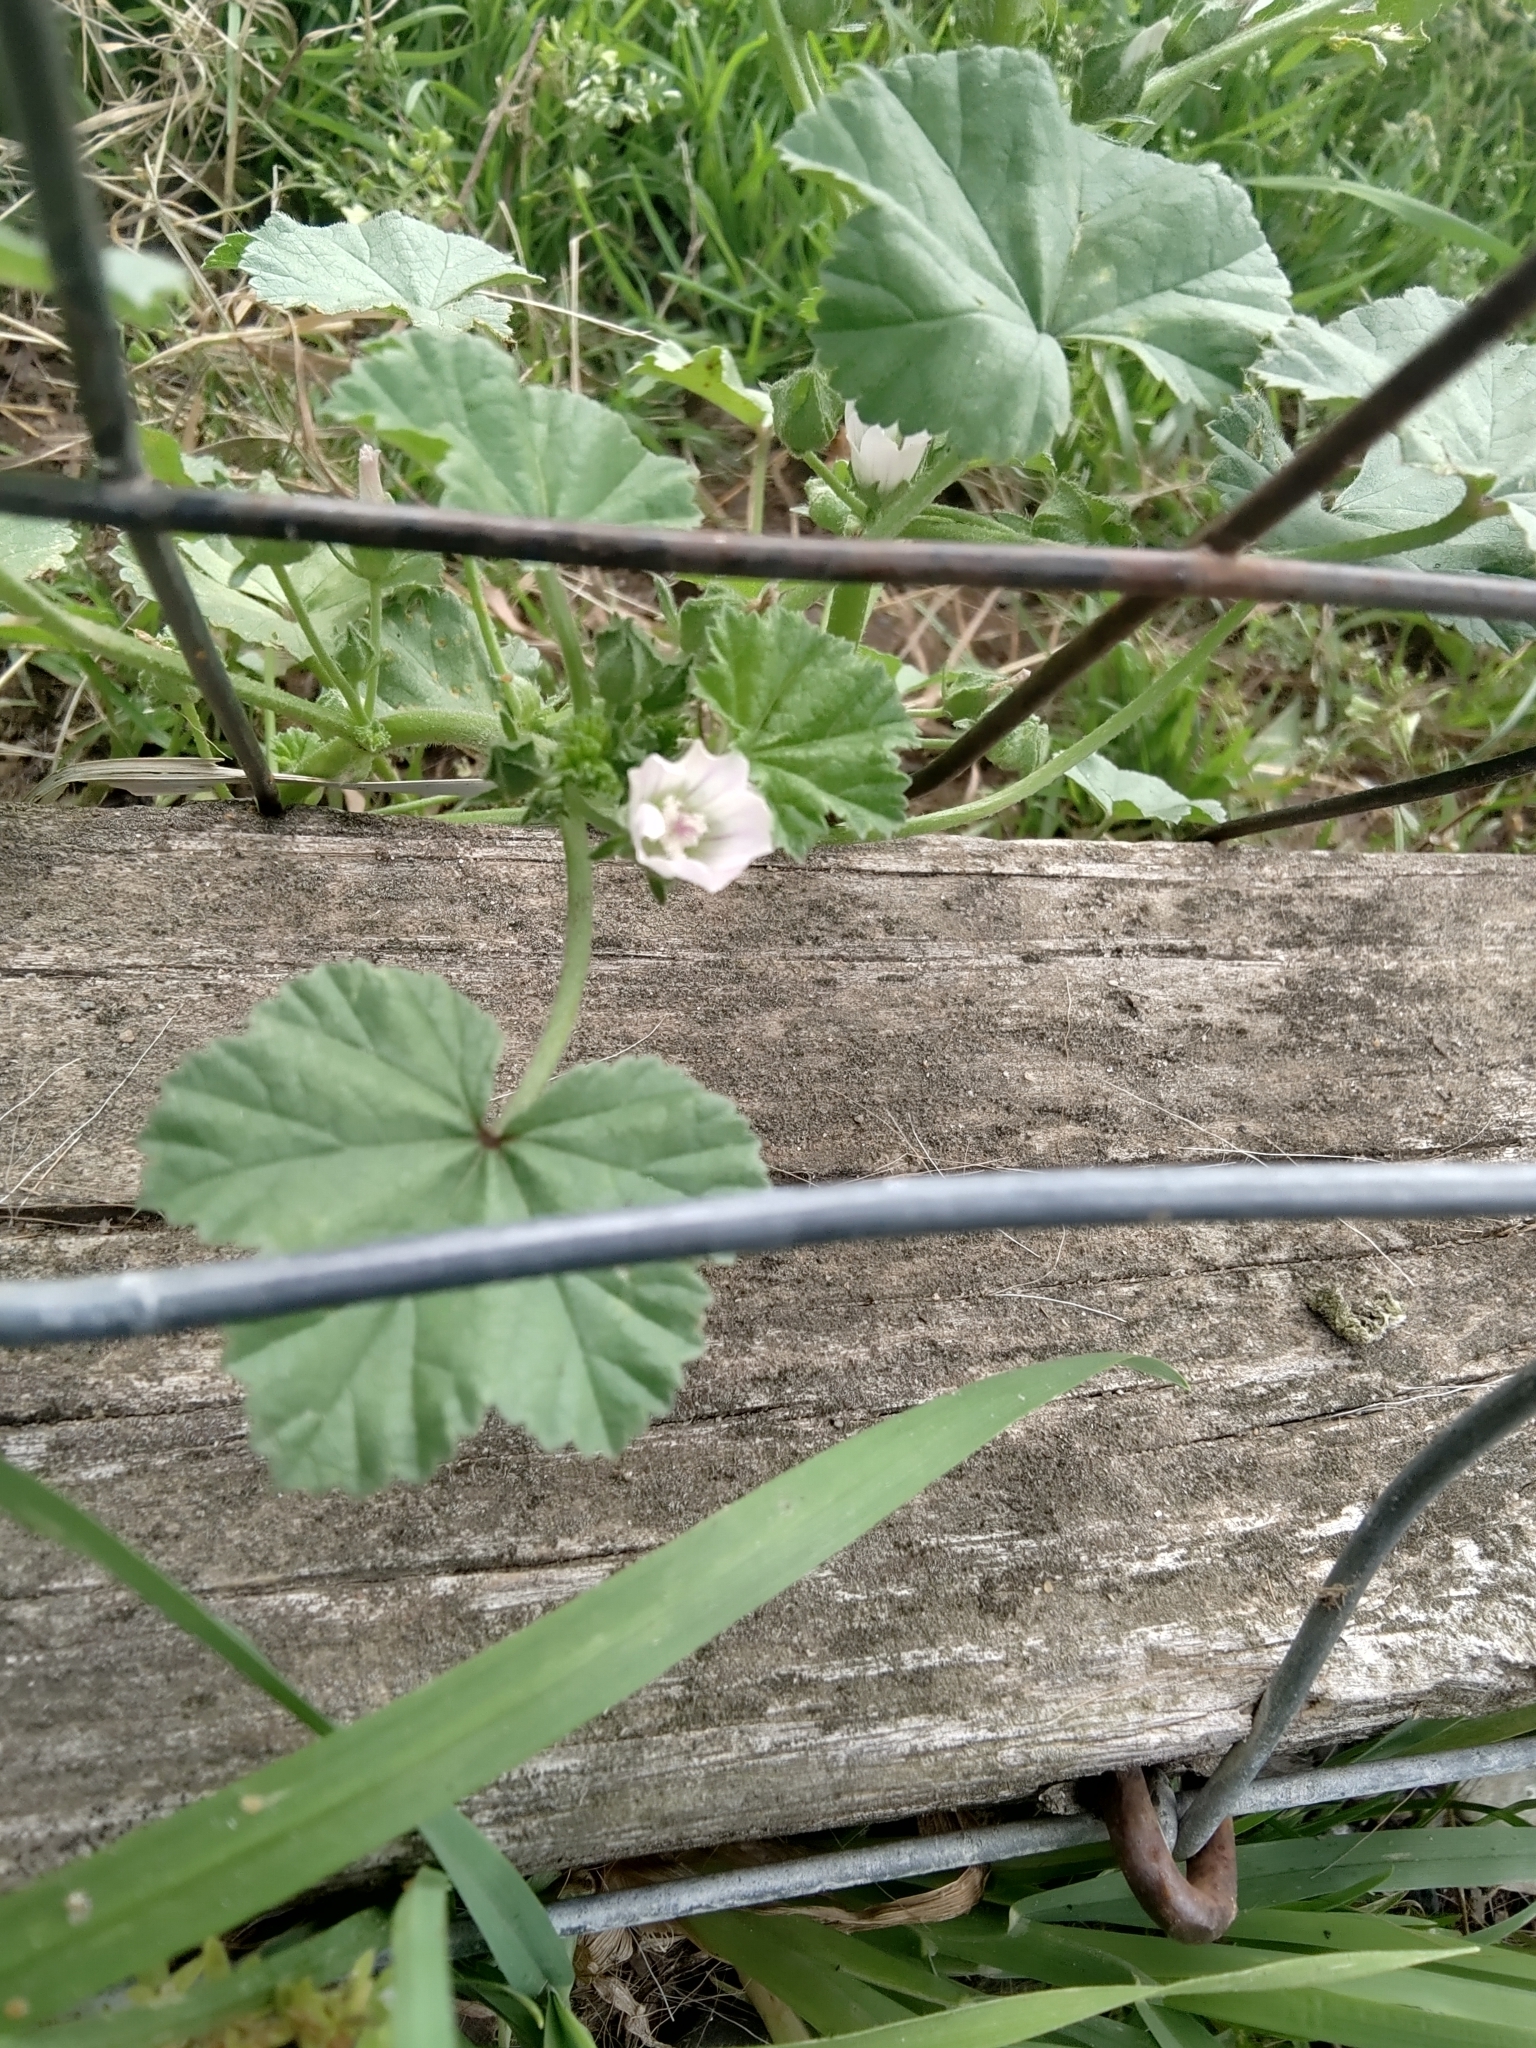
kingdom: Plantae
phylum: Tracheophyta
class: Magnoliopsida
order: Malvales
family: Malvaceae
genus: Malva
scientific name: Malva neglecta
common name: Common mallow
